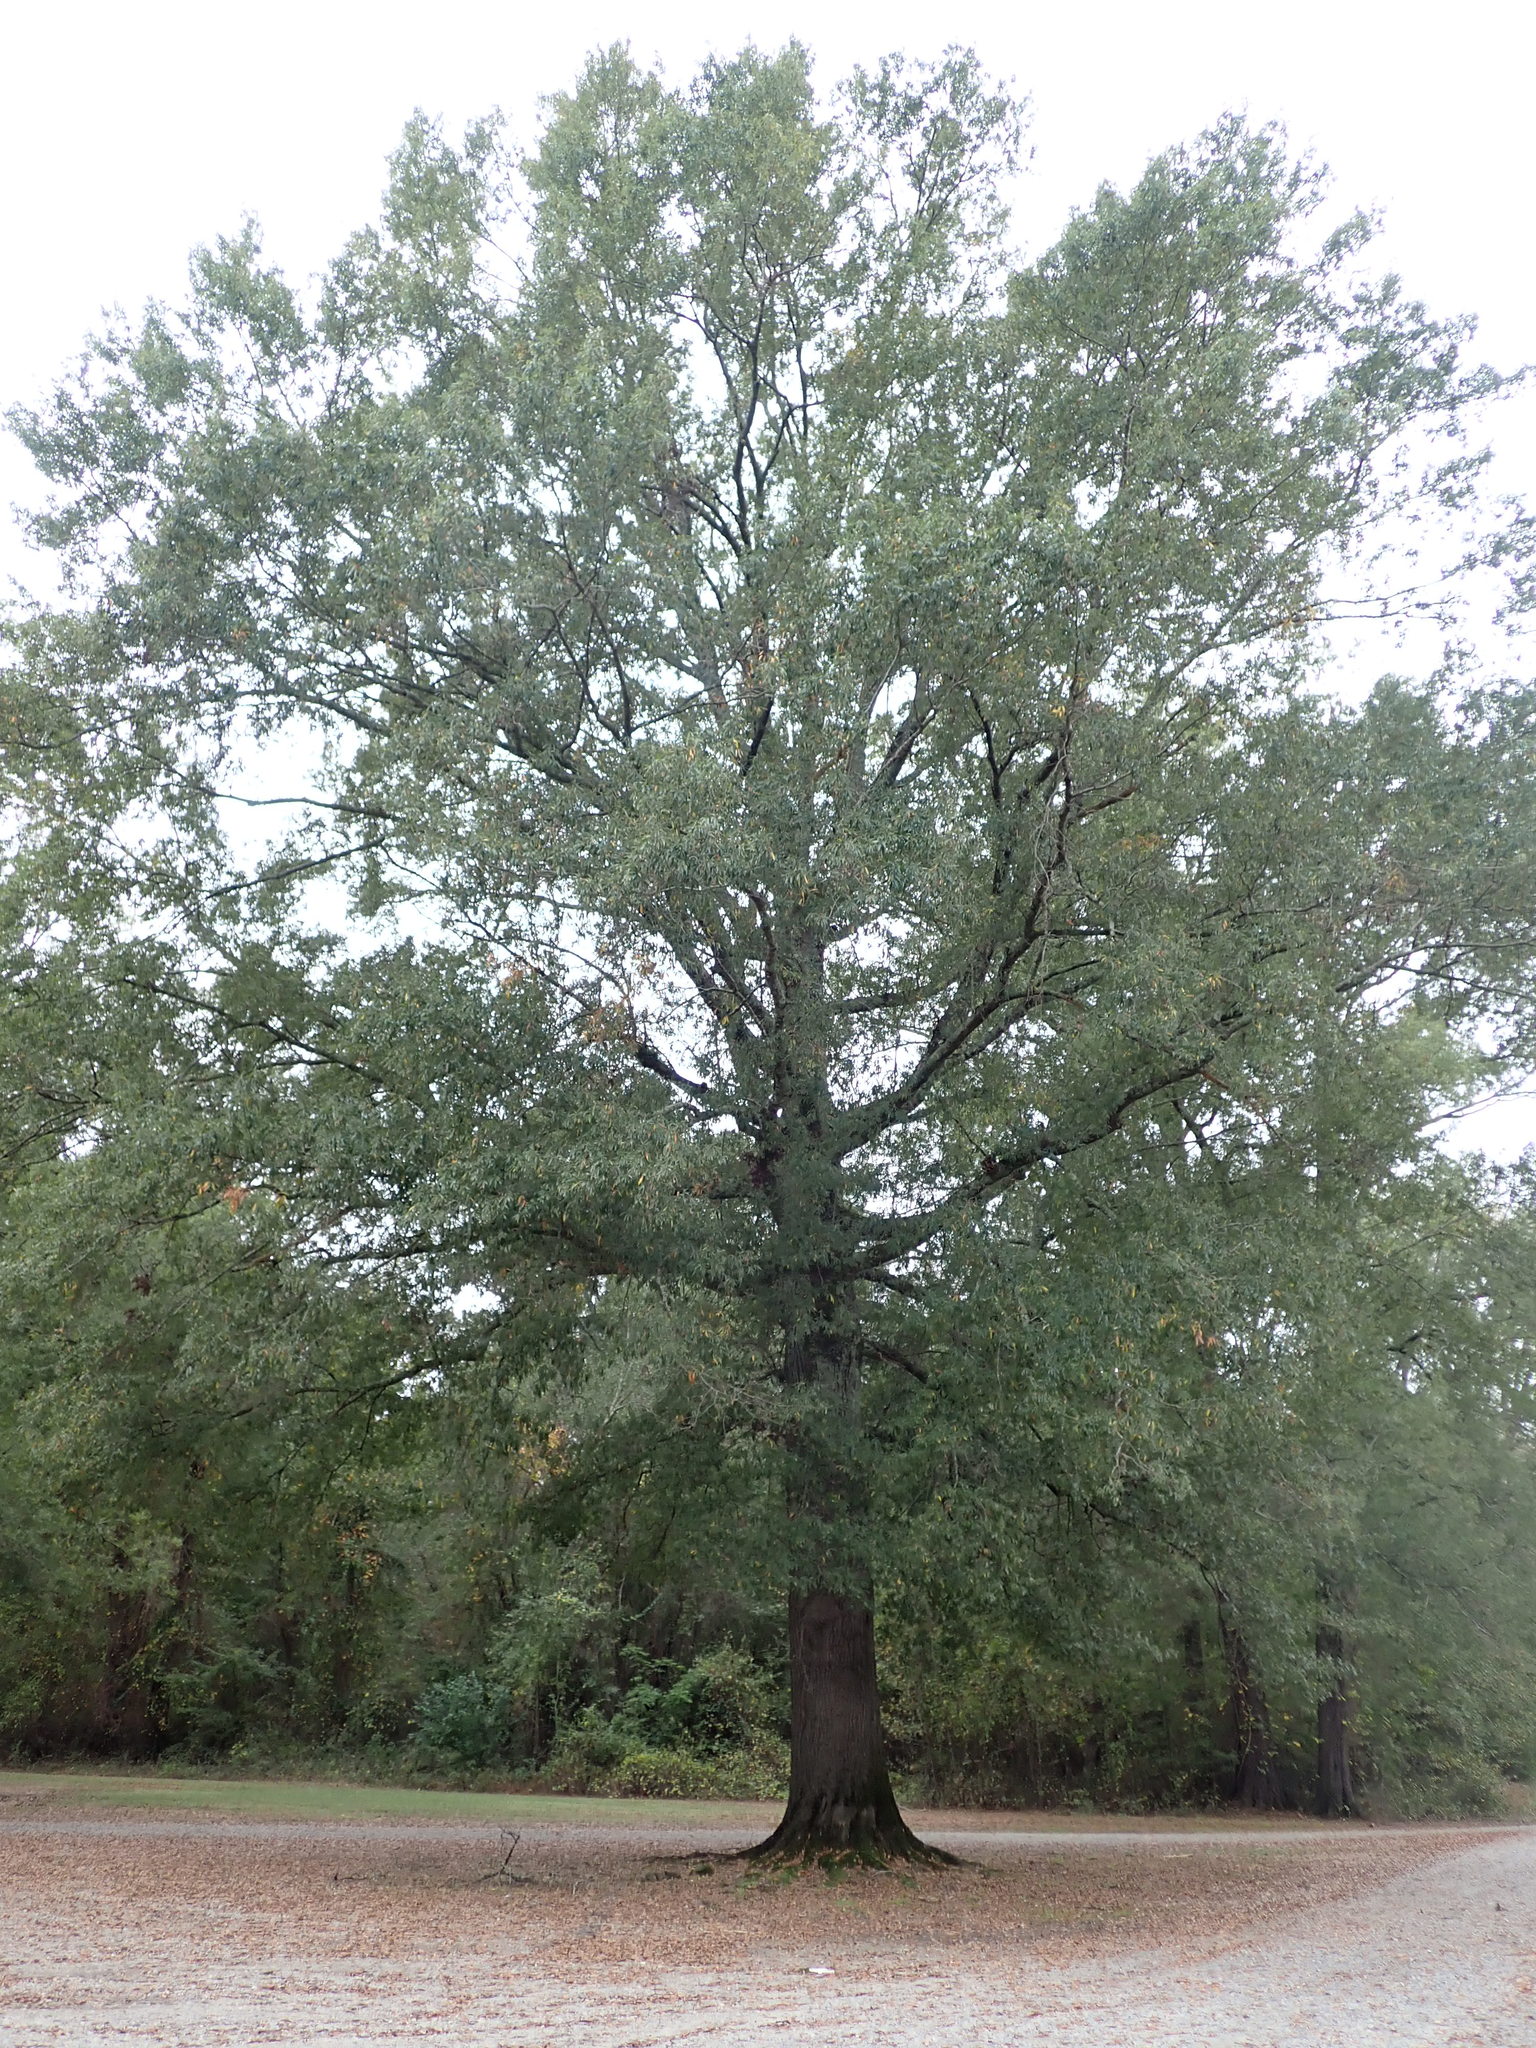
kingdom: Plantae
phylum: Tracheophyta
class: Magnoliopsida
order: Fagales
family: Fagaceae
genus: Quercus
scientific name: Quercus phellos
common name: Willow oak
